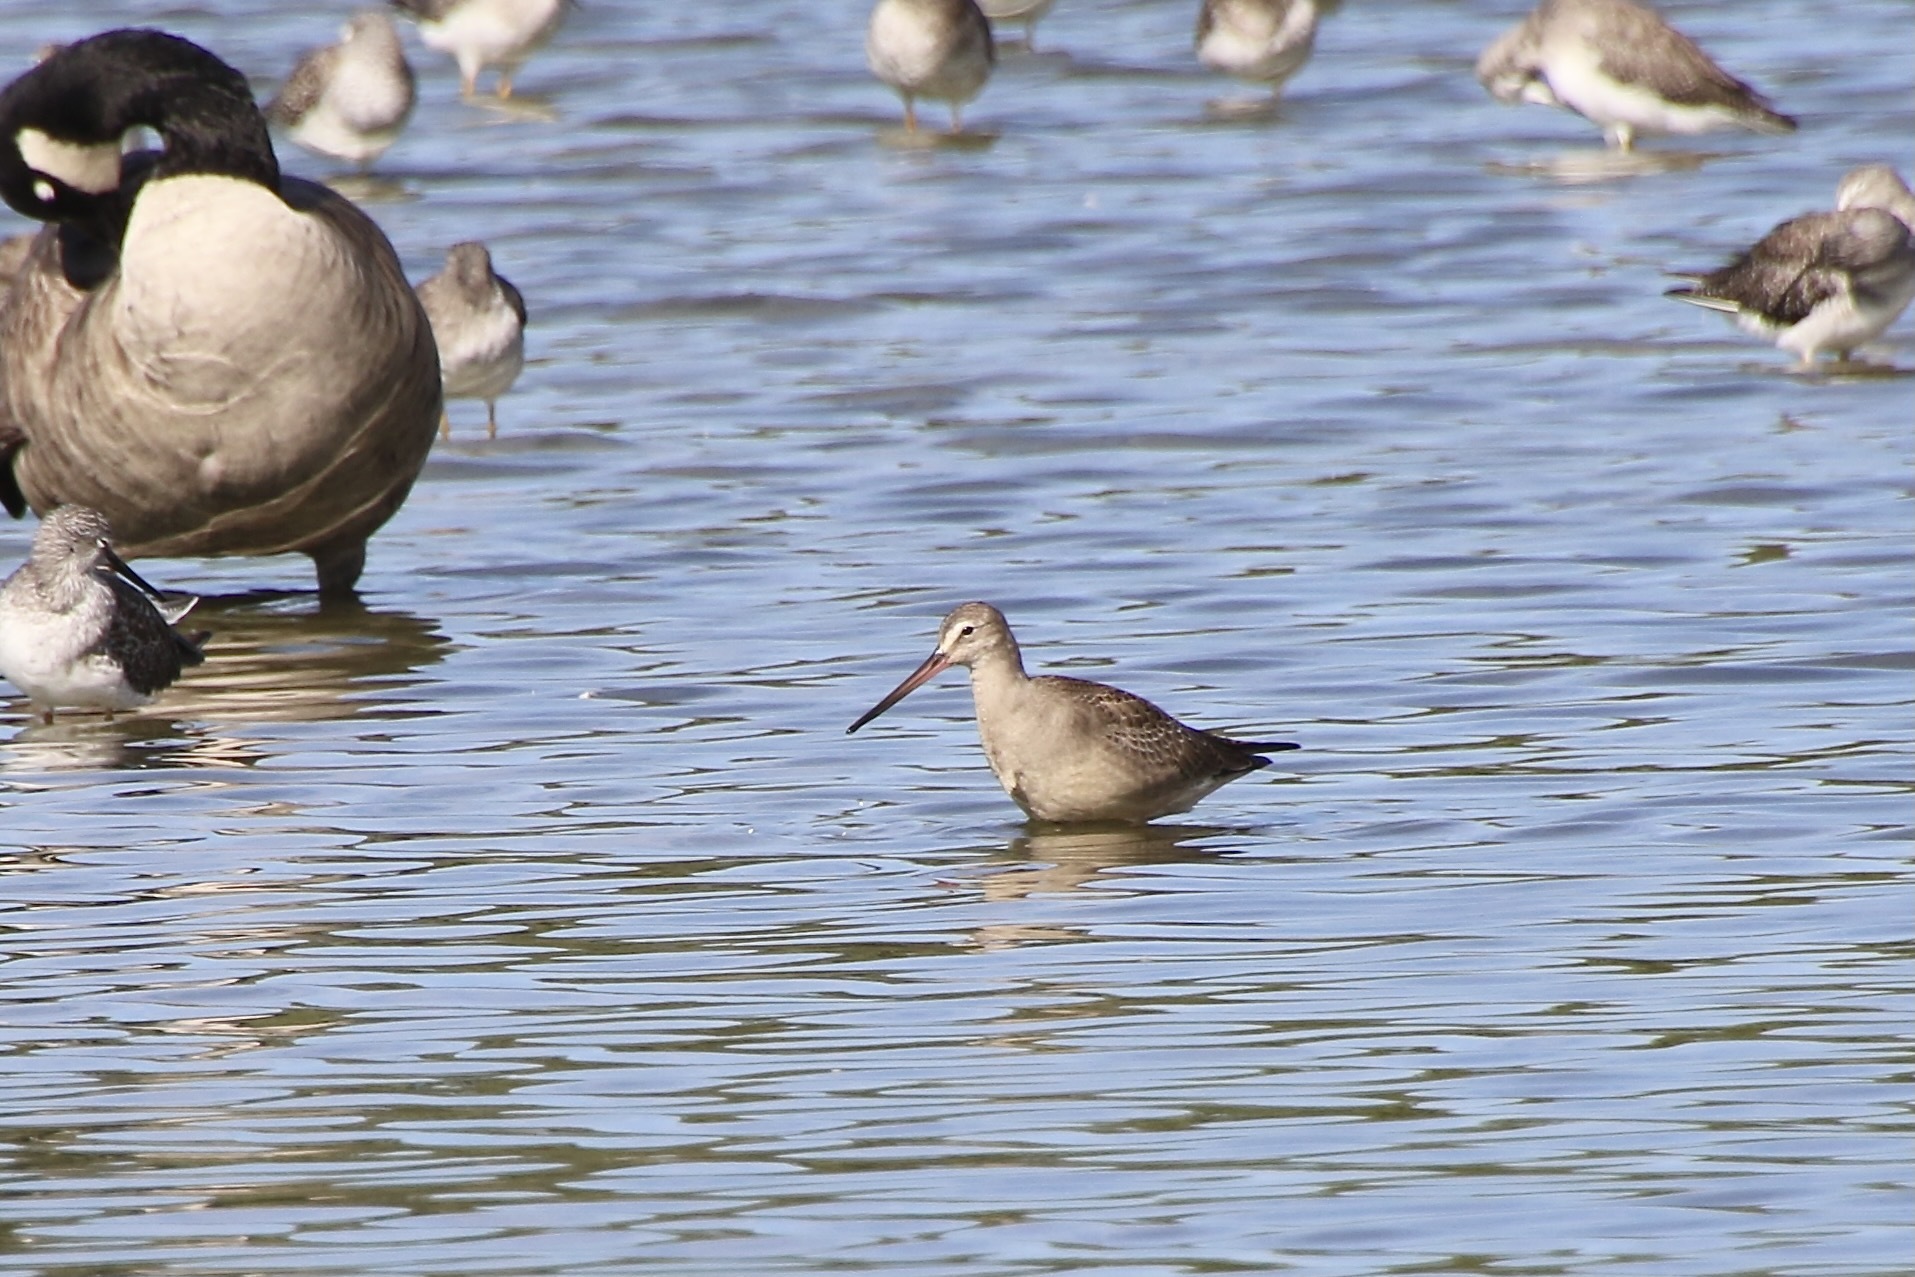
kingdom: Animalia
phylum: Chordata
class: Aves
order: Charadriiformes
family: Scolopacidae
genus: Limosa
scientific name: Limosa haemastica
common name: Hudsonian godwit
